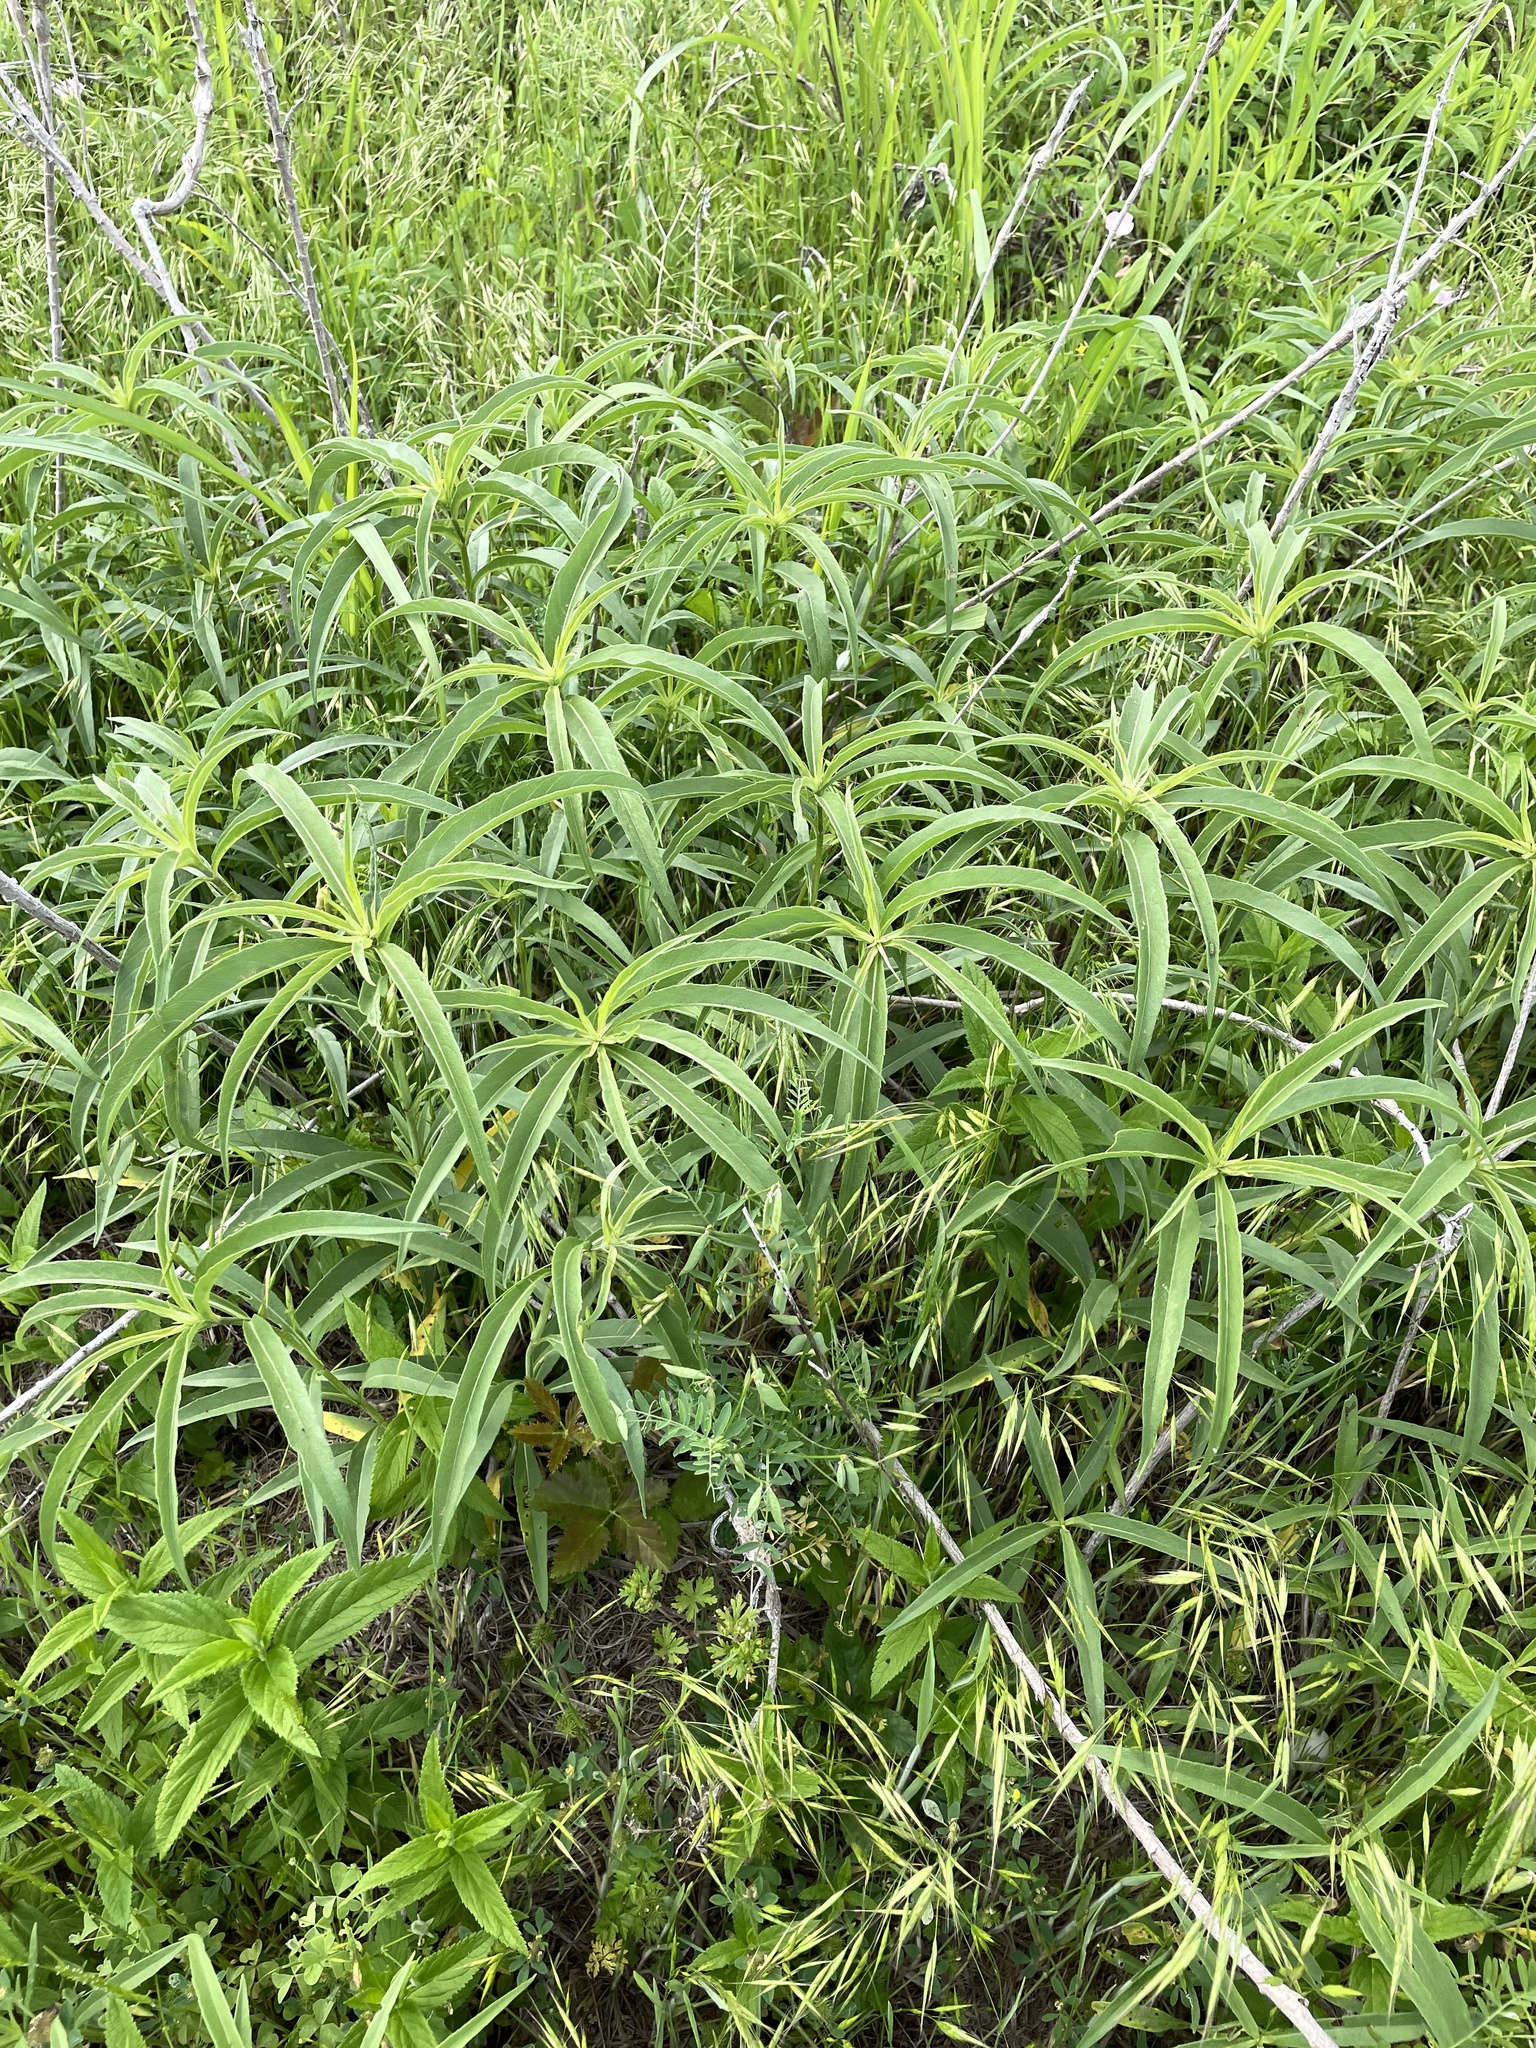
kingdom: Plantae
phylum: Tracheophyta
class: Magnoliopsida
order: Asterales
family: Asteraceae
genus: Helianthus
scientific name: Helianthus maximiliani
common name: Maximilian's sunflower
